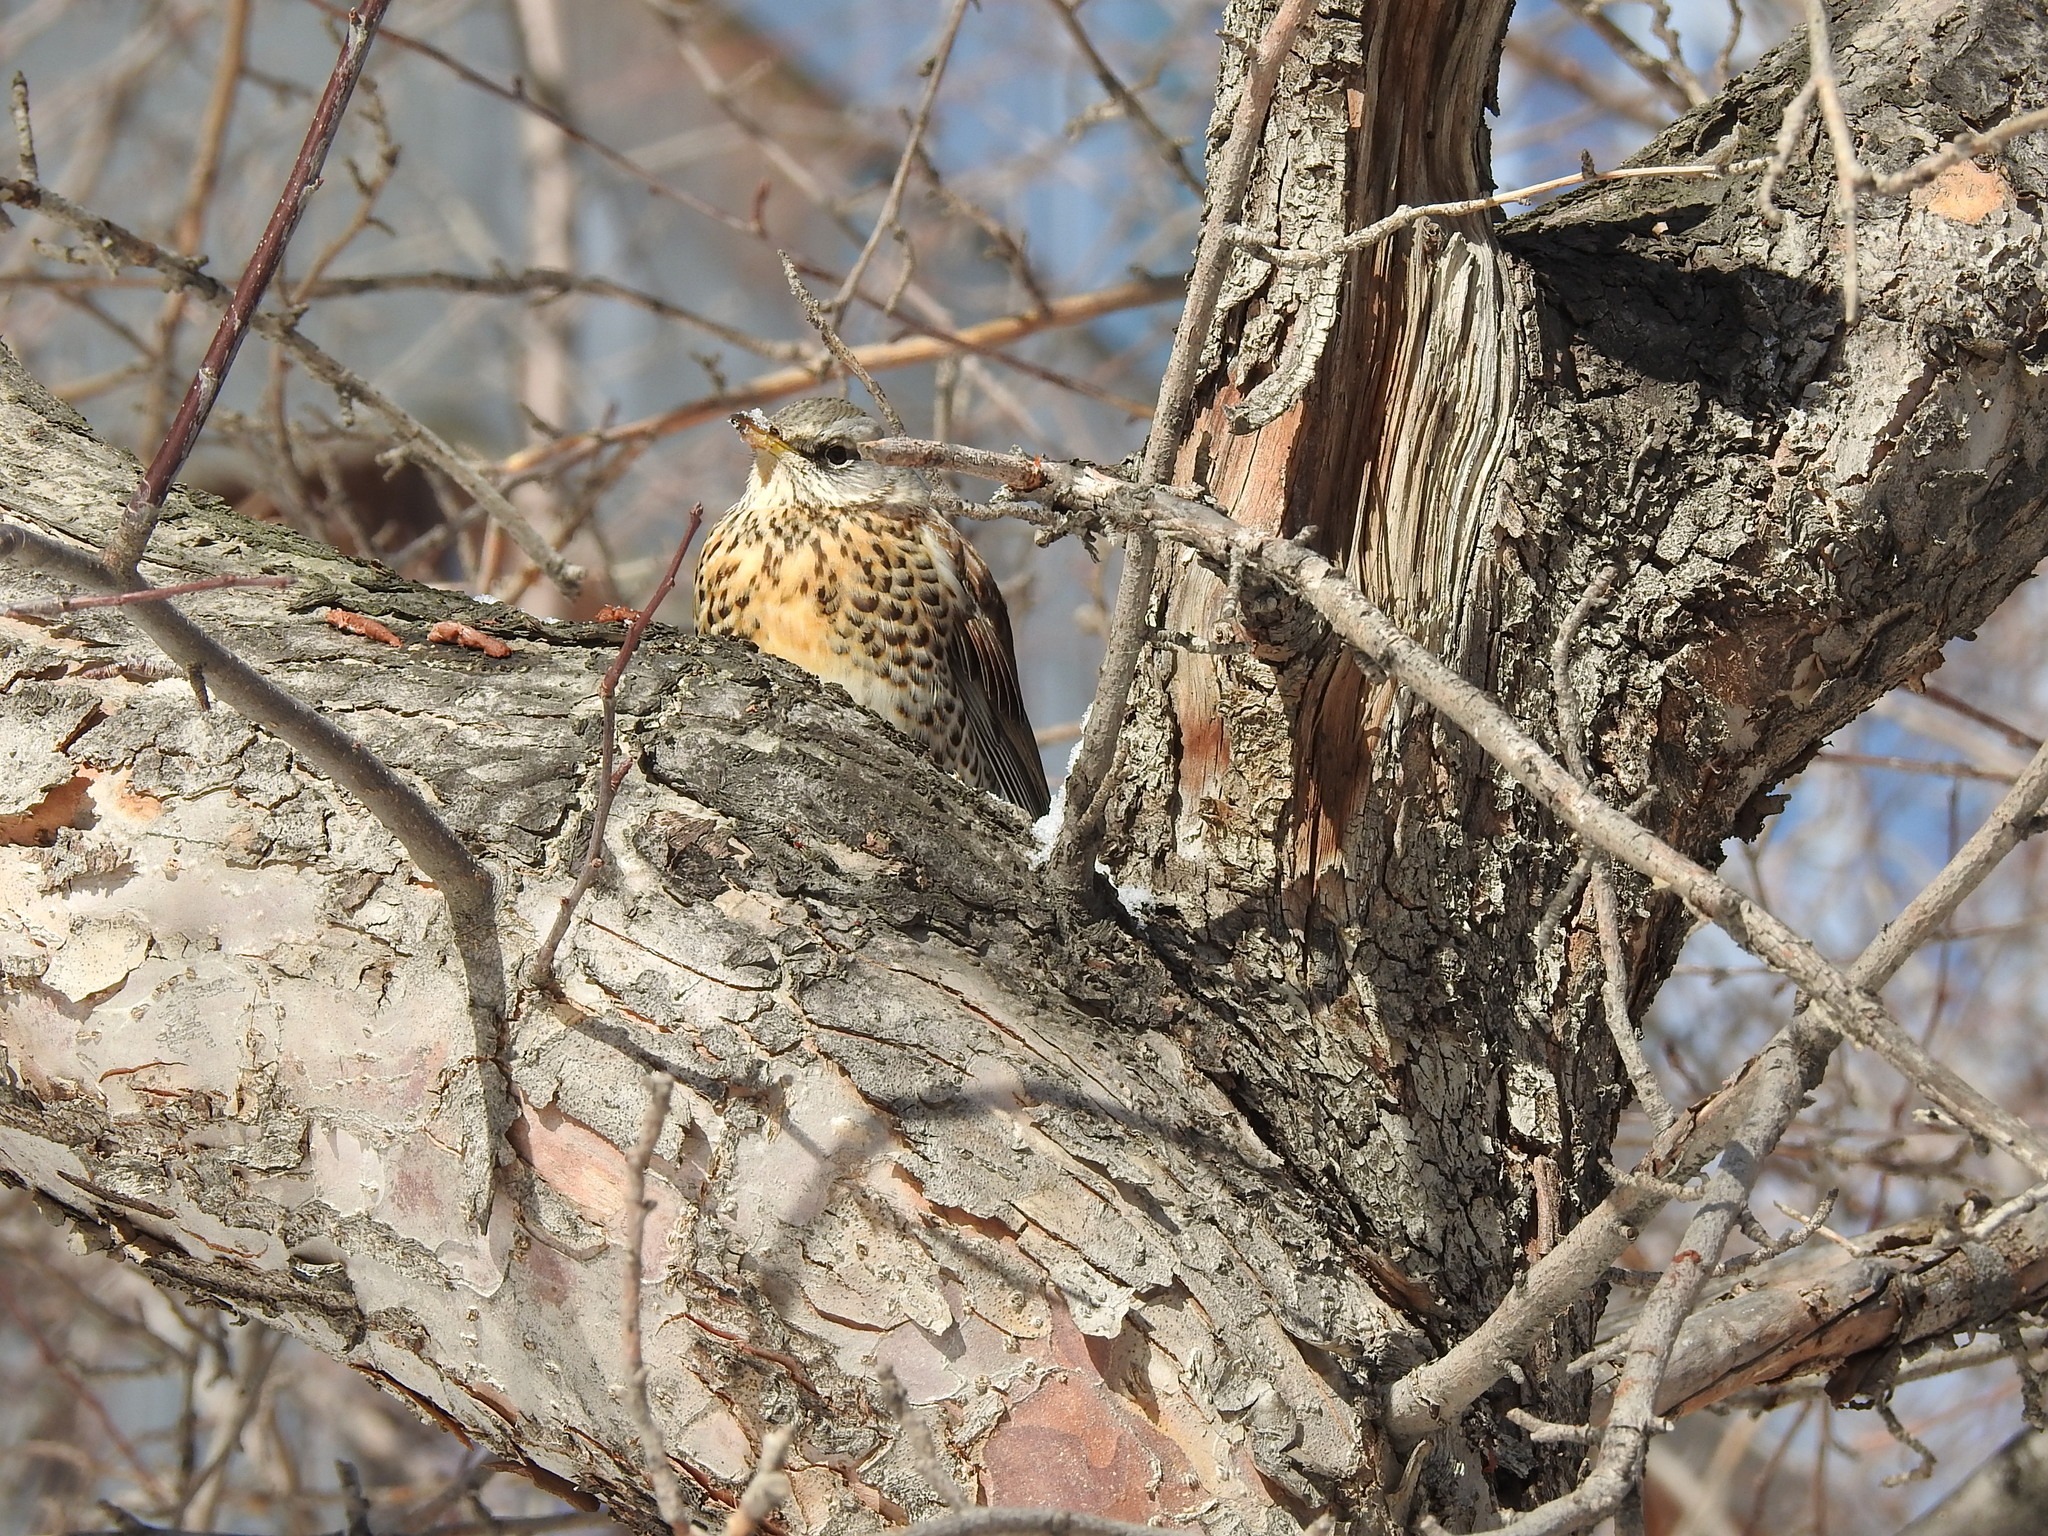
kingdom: Animalia
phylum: Chordata
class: Aves
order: Passeriformes
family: Turdidae
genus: Turdus
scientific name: Turdus pilaris
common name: Fieldfare
